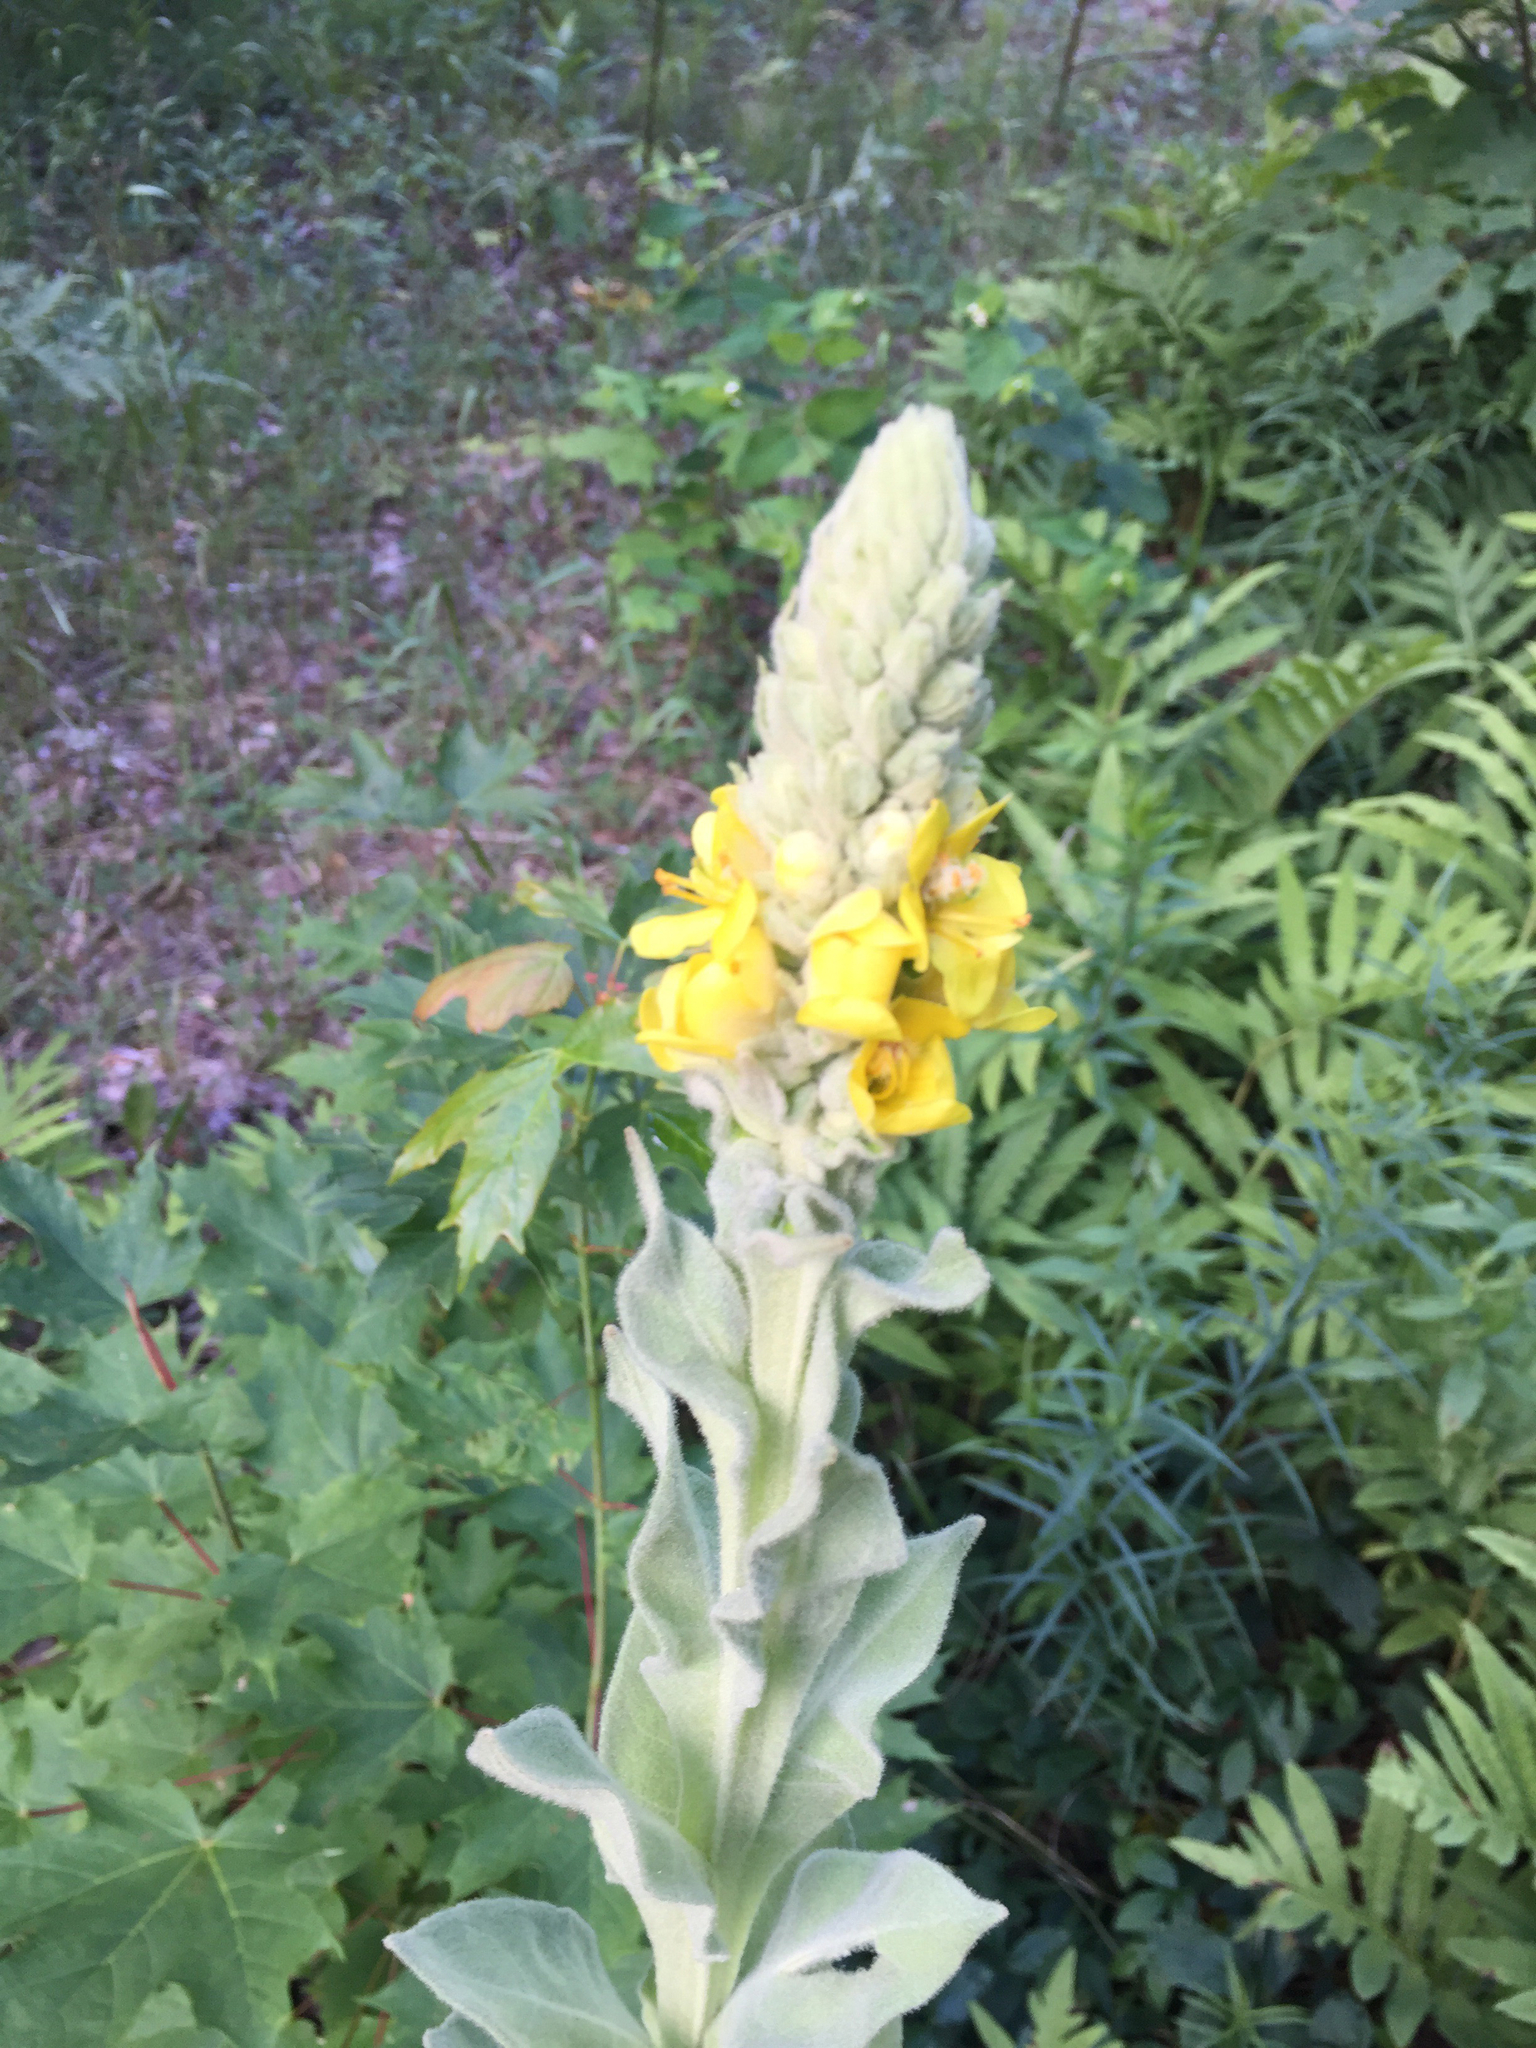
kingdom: Plantae
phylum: Tracheophyta
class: Magnoliopsida
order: Lamiales
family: Scrophulariaceae
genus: Verbascum
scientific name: Verbascum thapsus
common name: Common mullein
